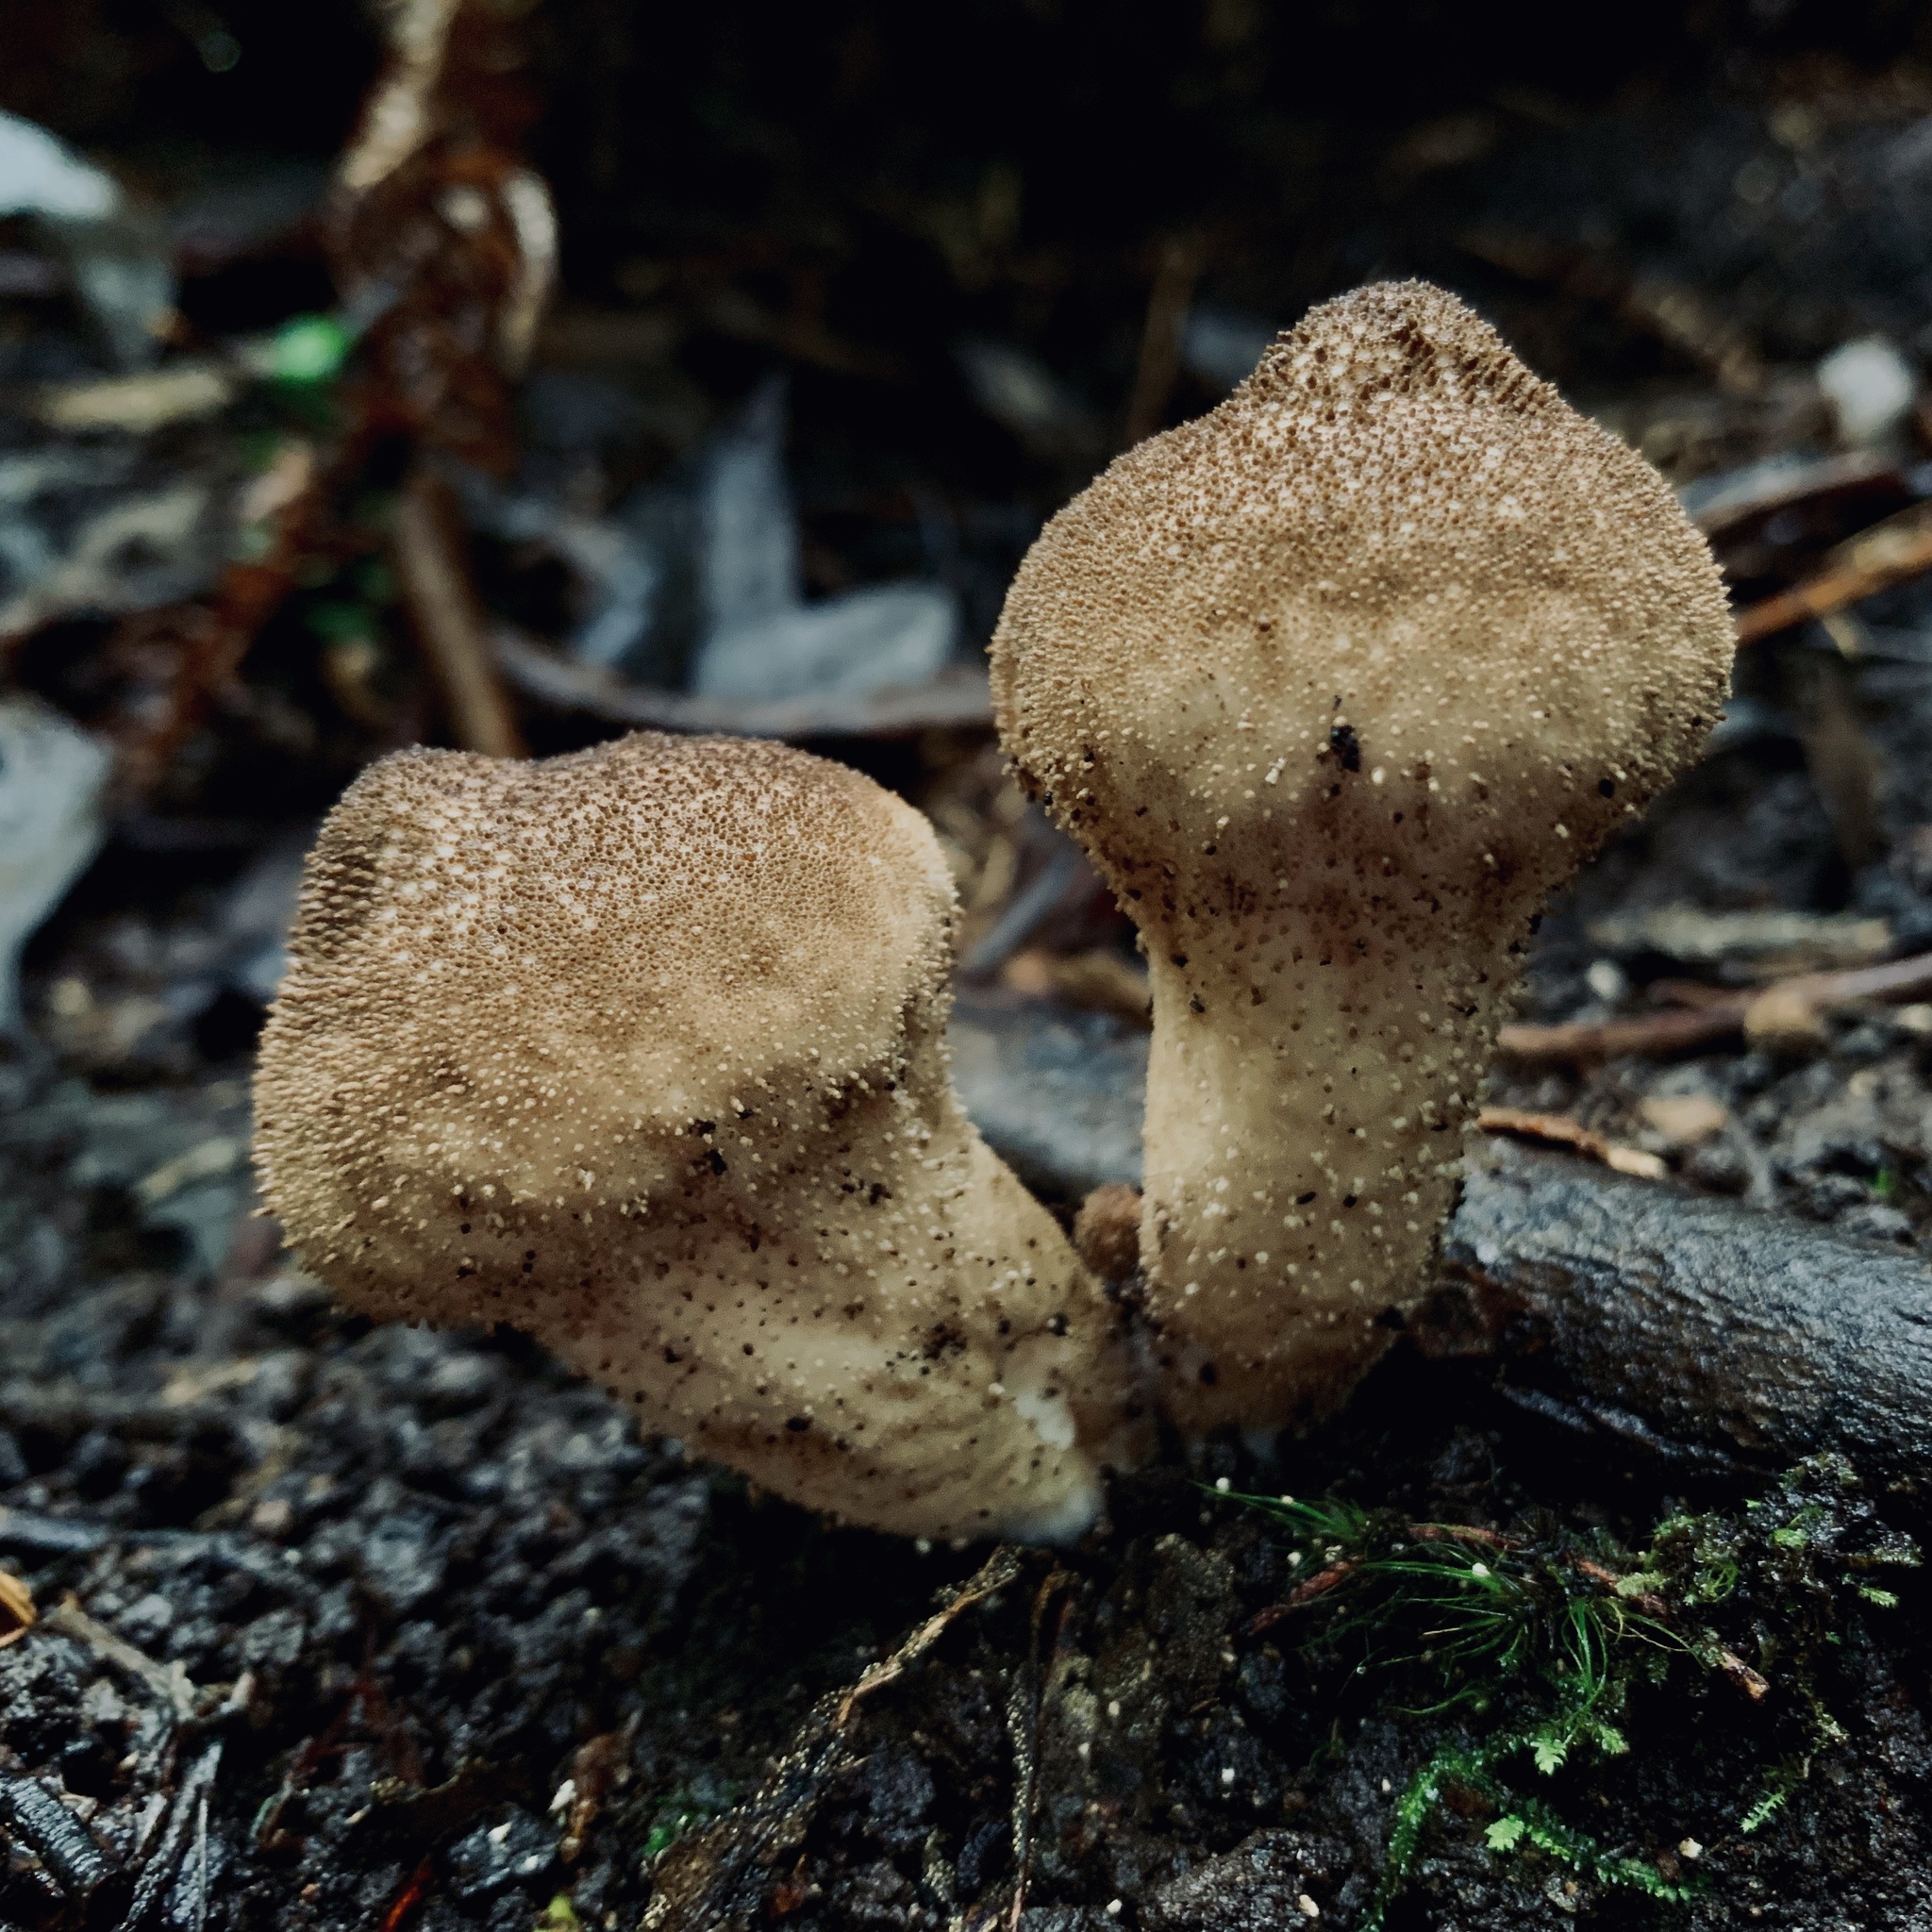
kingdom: Fungi
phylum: Basidiomycota
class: Agaricomycetes
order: Agaricales
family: Lycoperdaceae
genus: Lycoperdon
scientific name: Lycoperdon perlatum
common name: Common puffball
